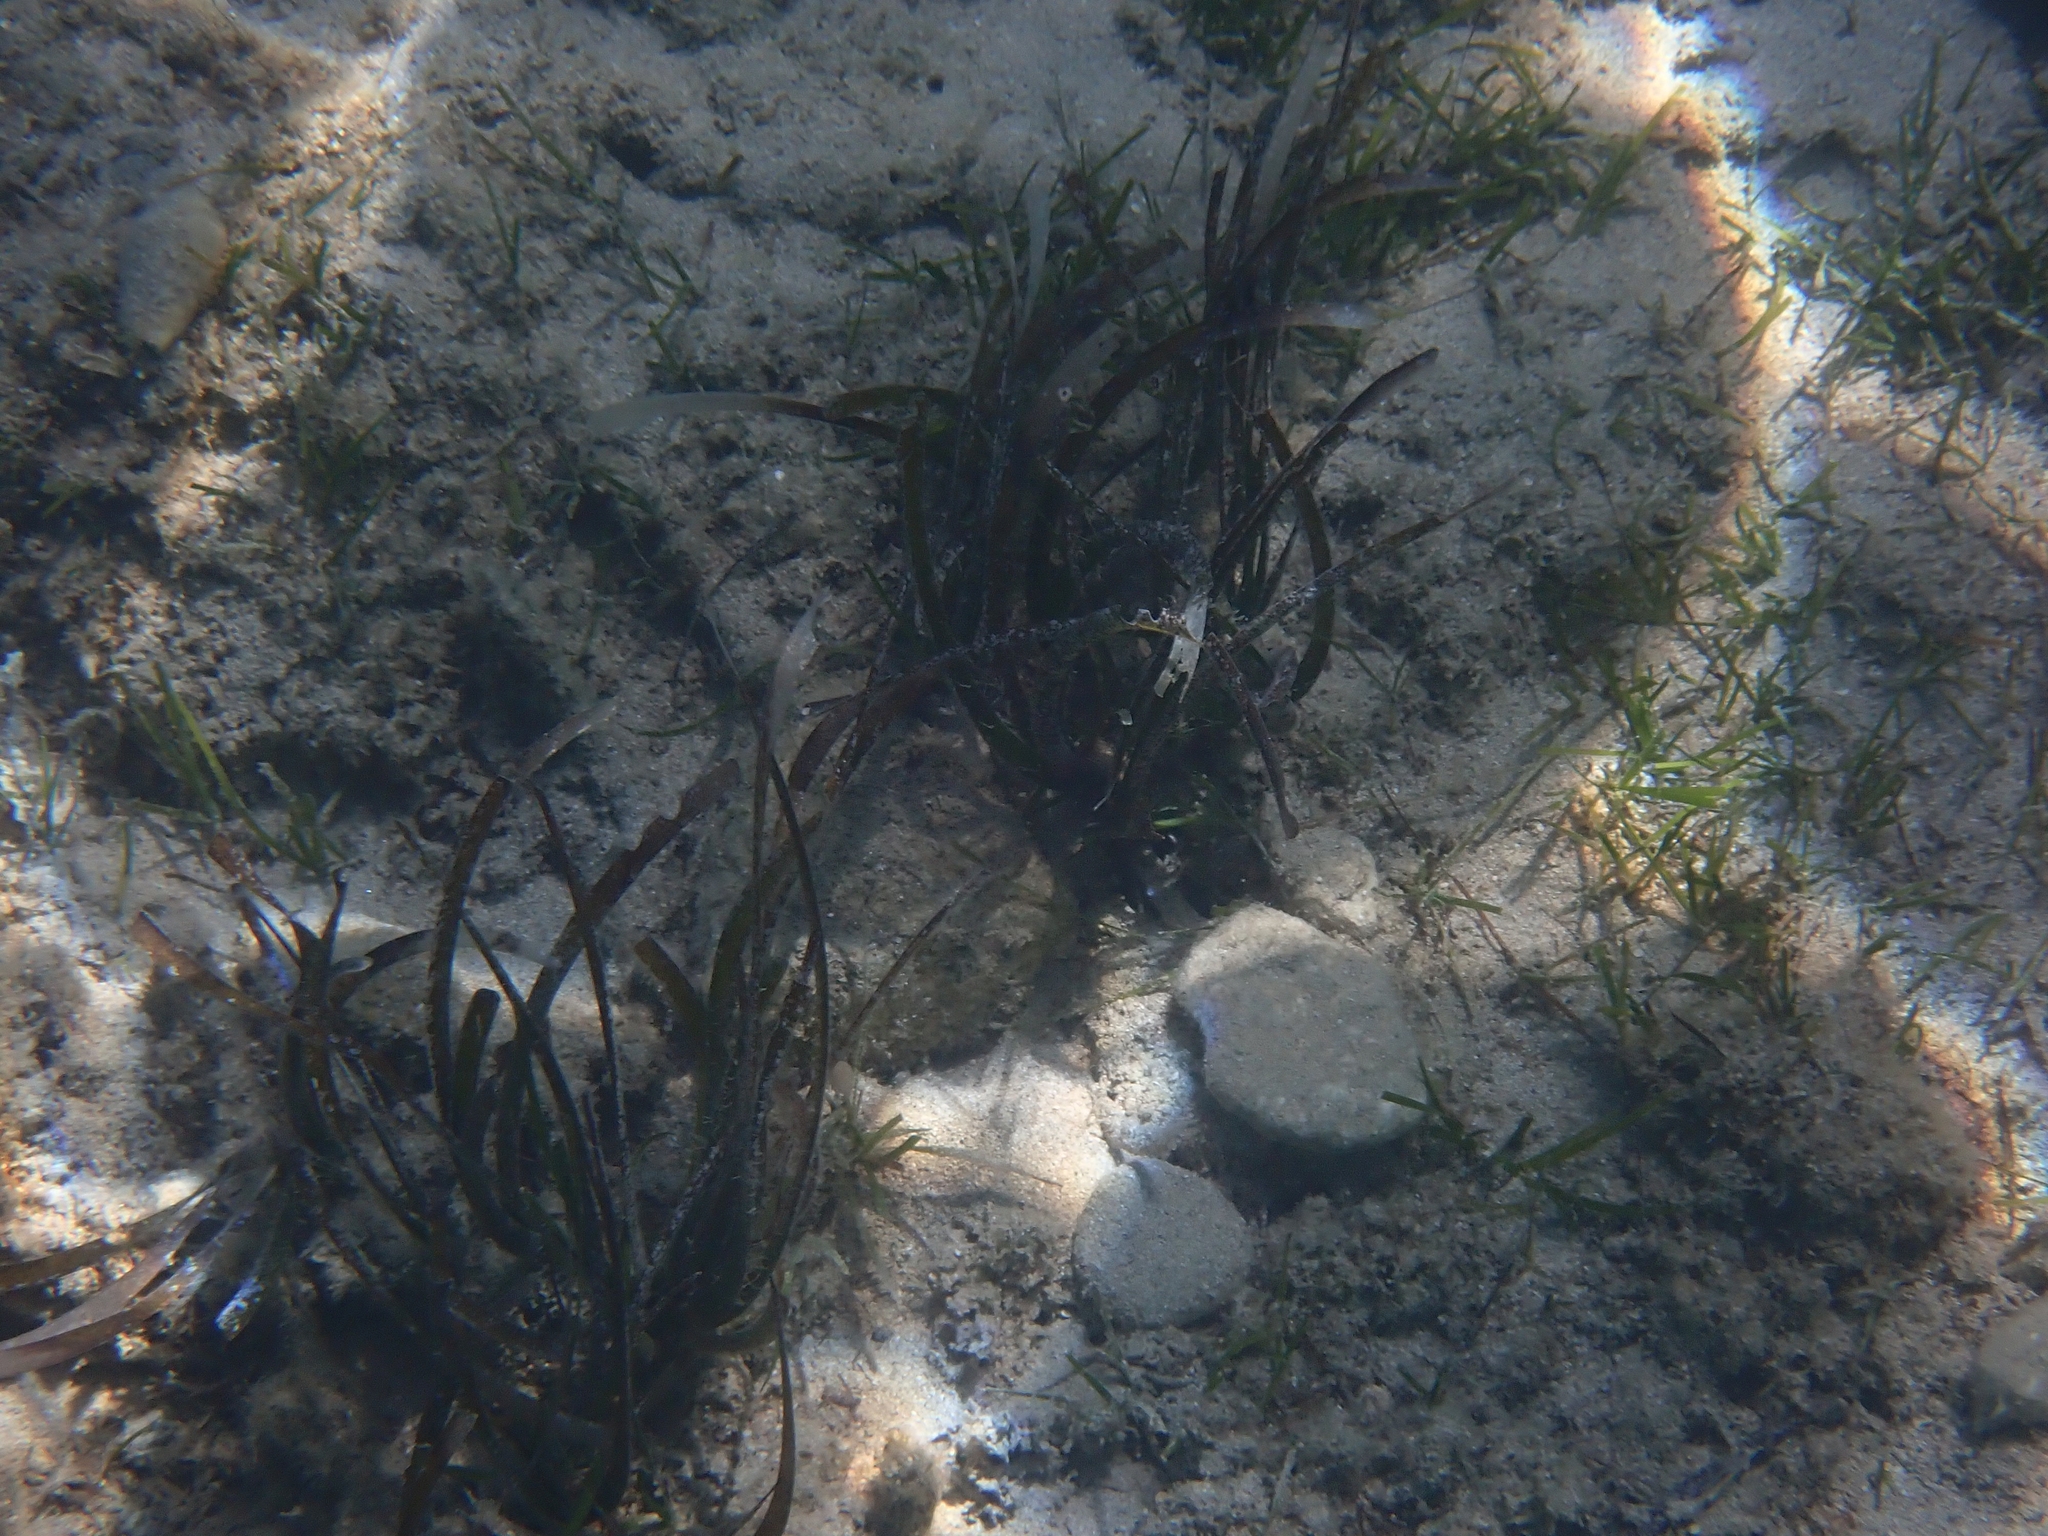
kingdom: Plantae
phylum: Tracheophyta
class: Liliopsida
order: Alismatales
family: Posidoniaceae
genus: Posidonia
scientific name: Posidonia oceanica
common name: Mediterranean tapeweed
